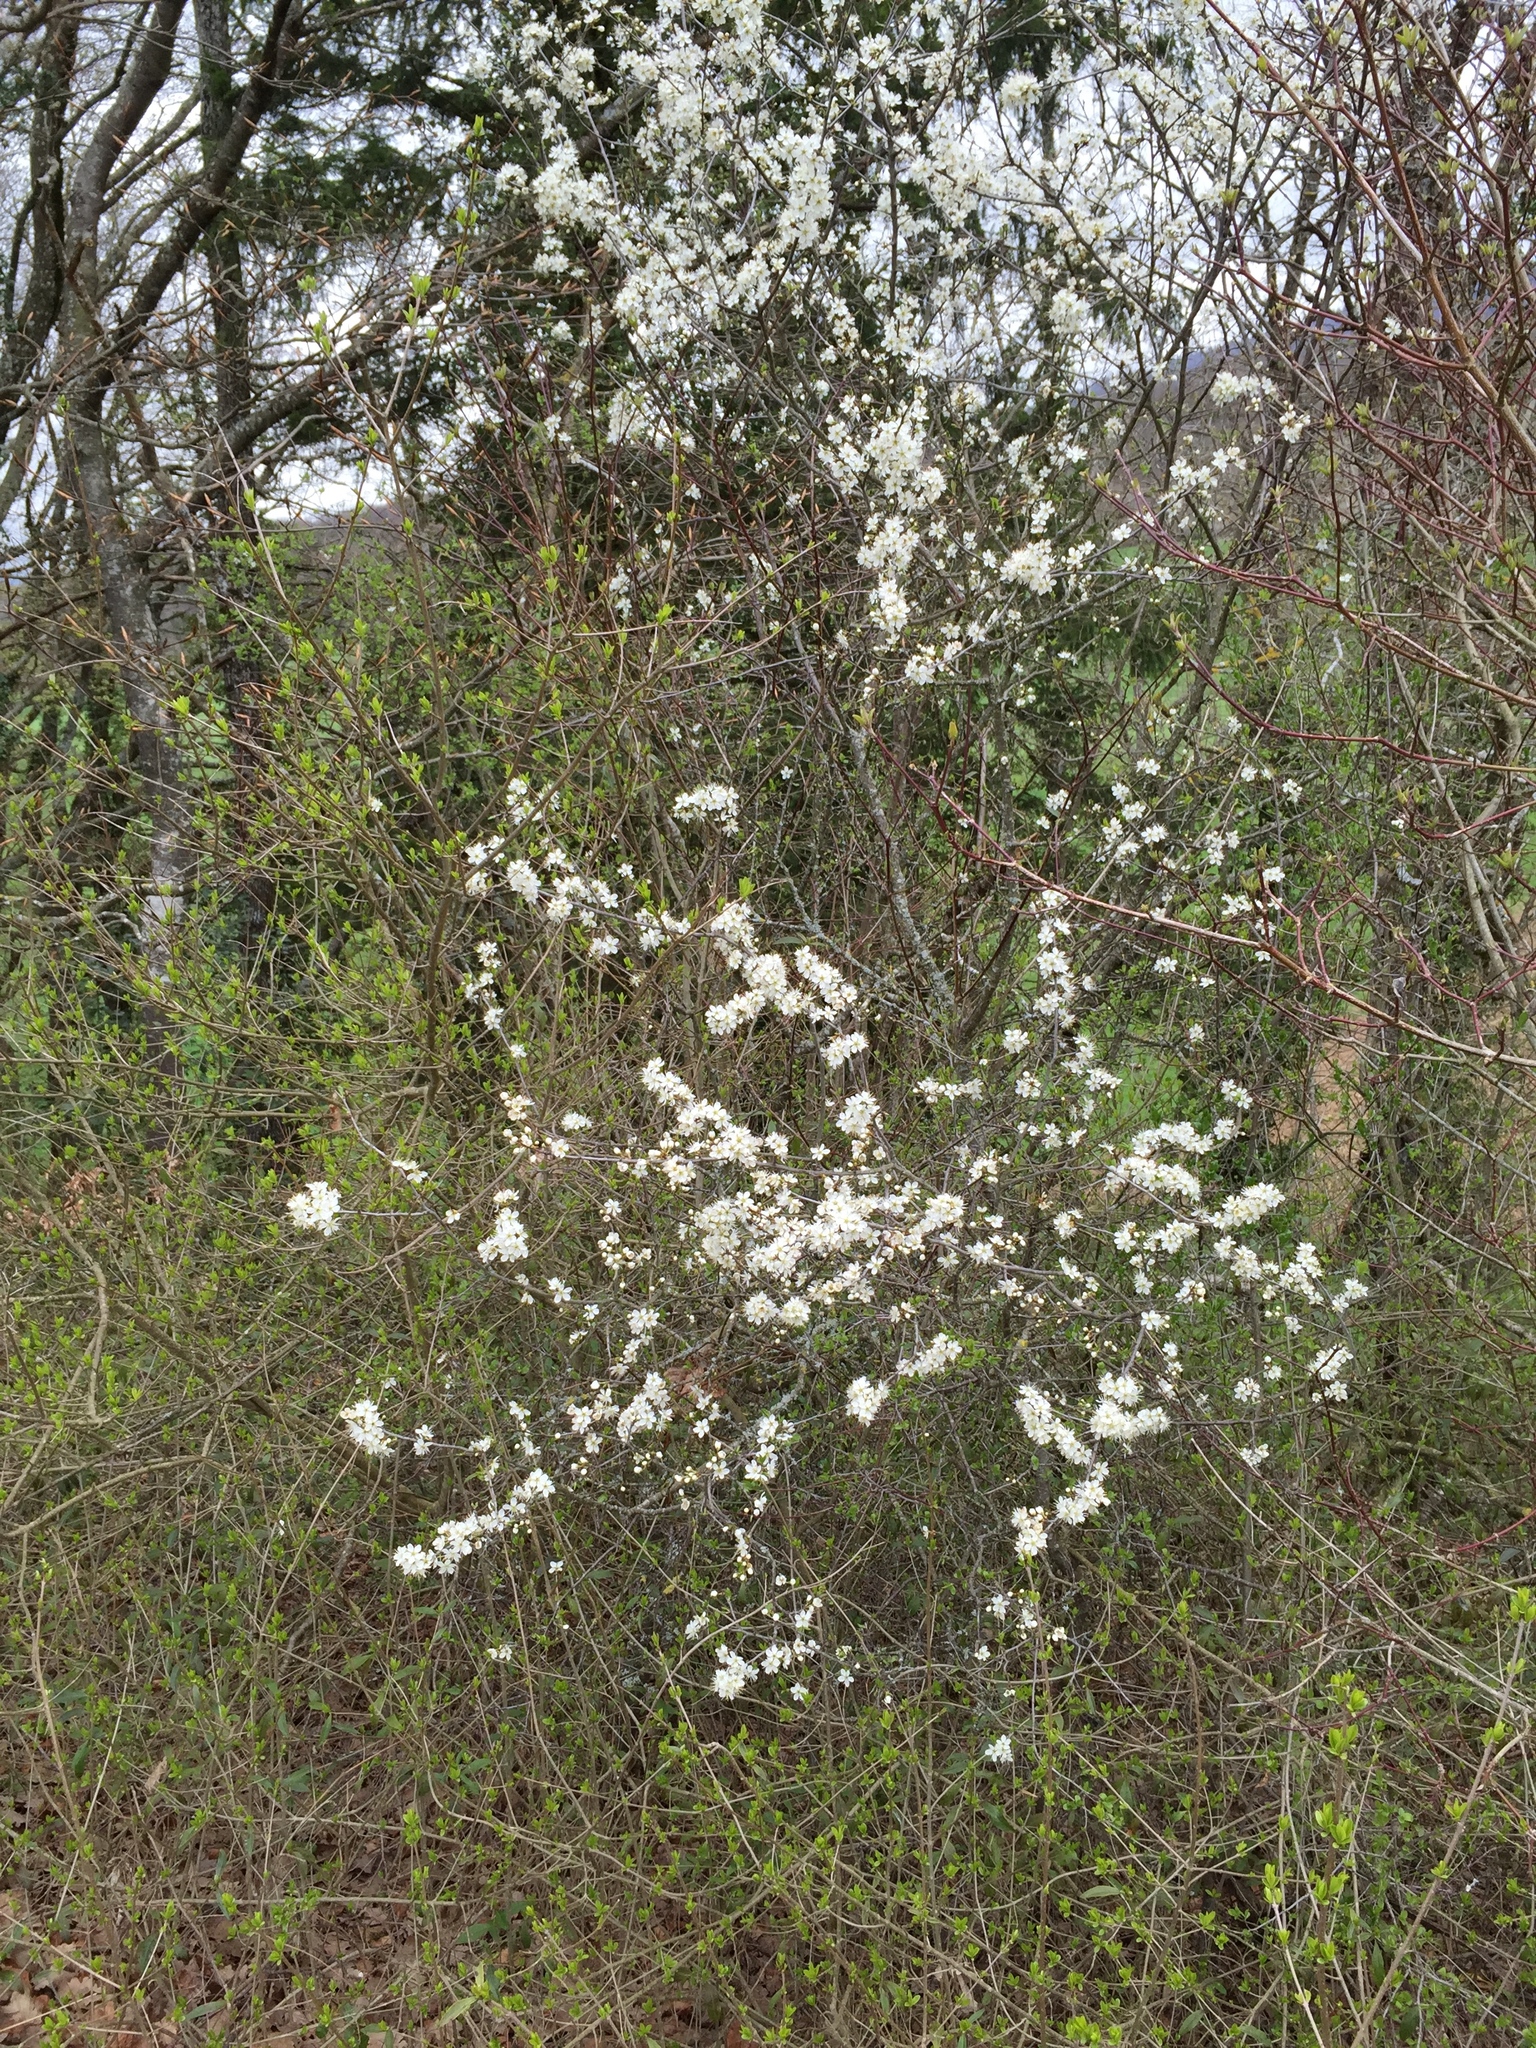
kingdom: Plantae
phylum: Tracheophyta
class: Magnoliopsida
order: Rosales
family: Rosaceae
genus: Prunus
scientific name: Prunus spinosa
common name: Blackthorn
